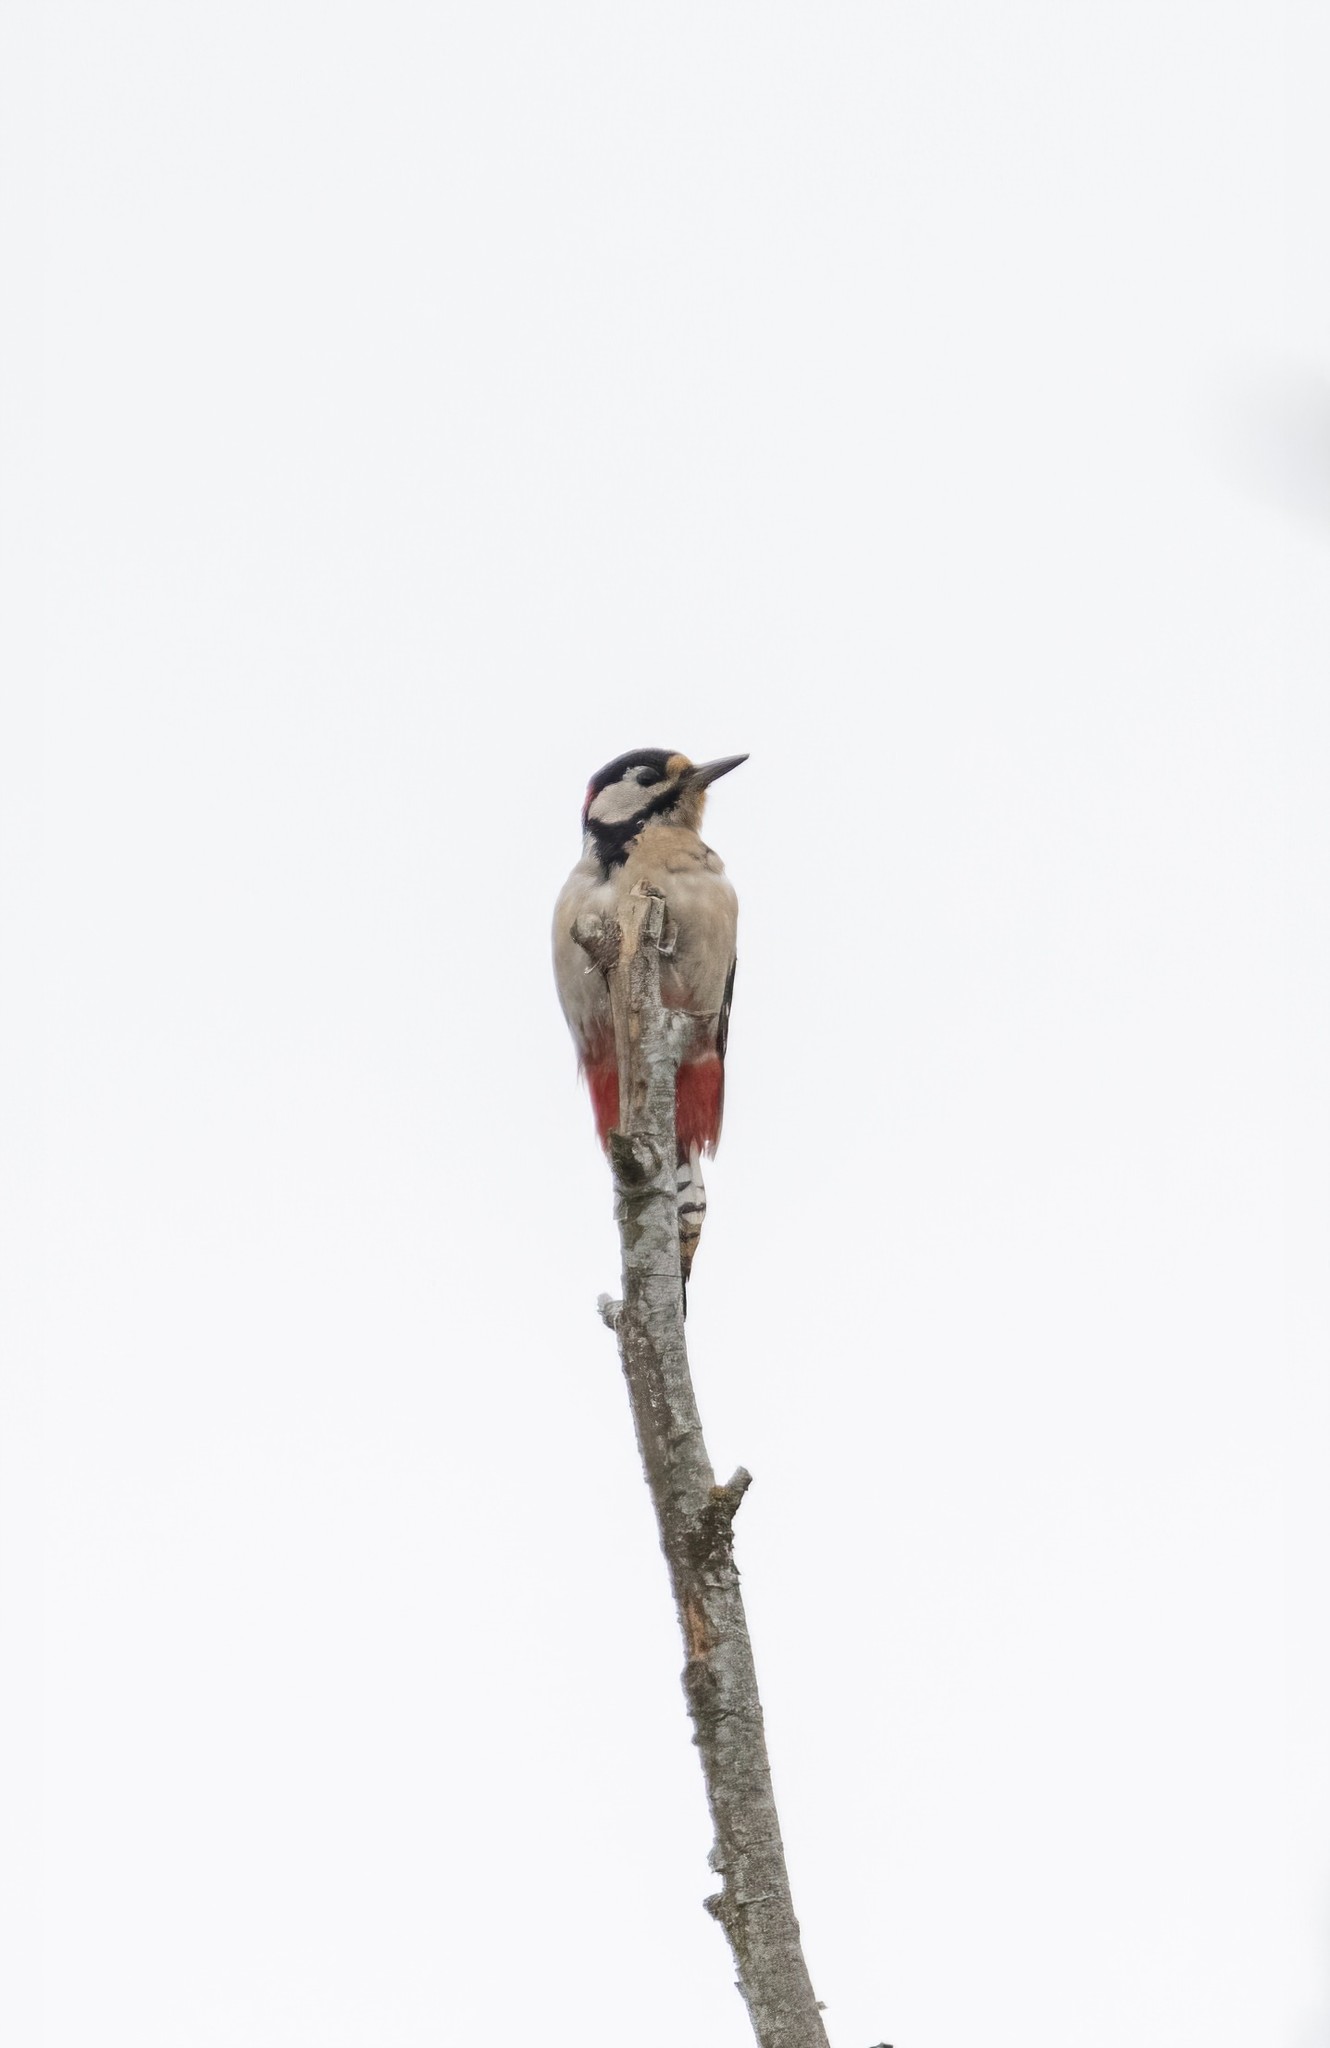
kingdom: Animalia
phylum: Chordata
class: Aves
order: Piciformes
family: Picidae
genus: Dendrocopos
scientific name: Dendrocopos major
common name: Great spotted woodpecker
